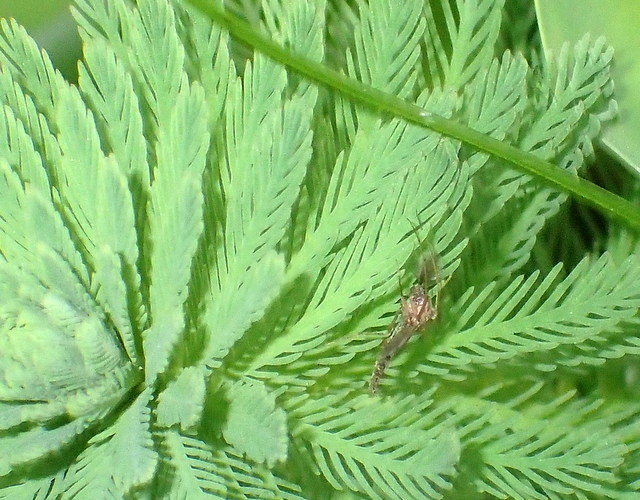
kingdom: Plantae
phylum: Tracheophyta
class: Magnoliopsida
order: Saxifragales
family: Haloragaceae
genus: Myriophyllum
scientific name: Myriophyllum aquaticum
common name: Parrot's feather
